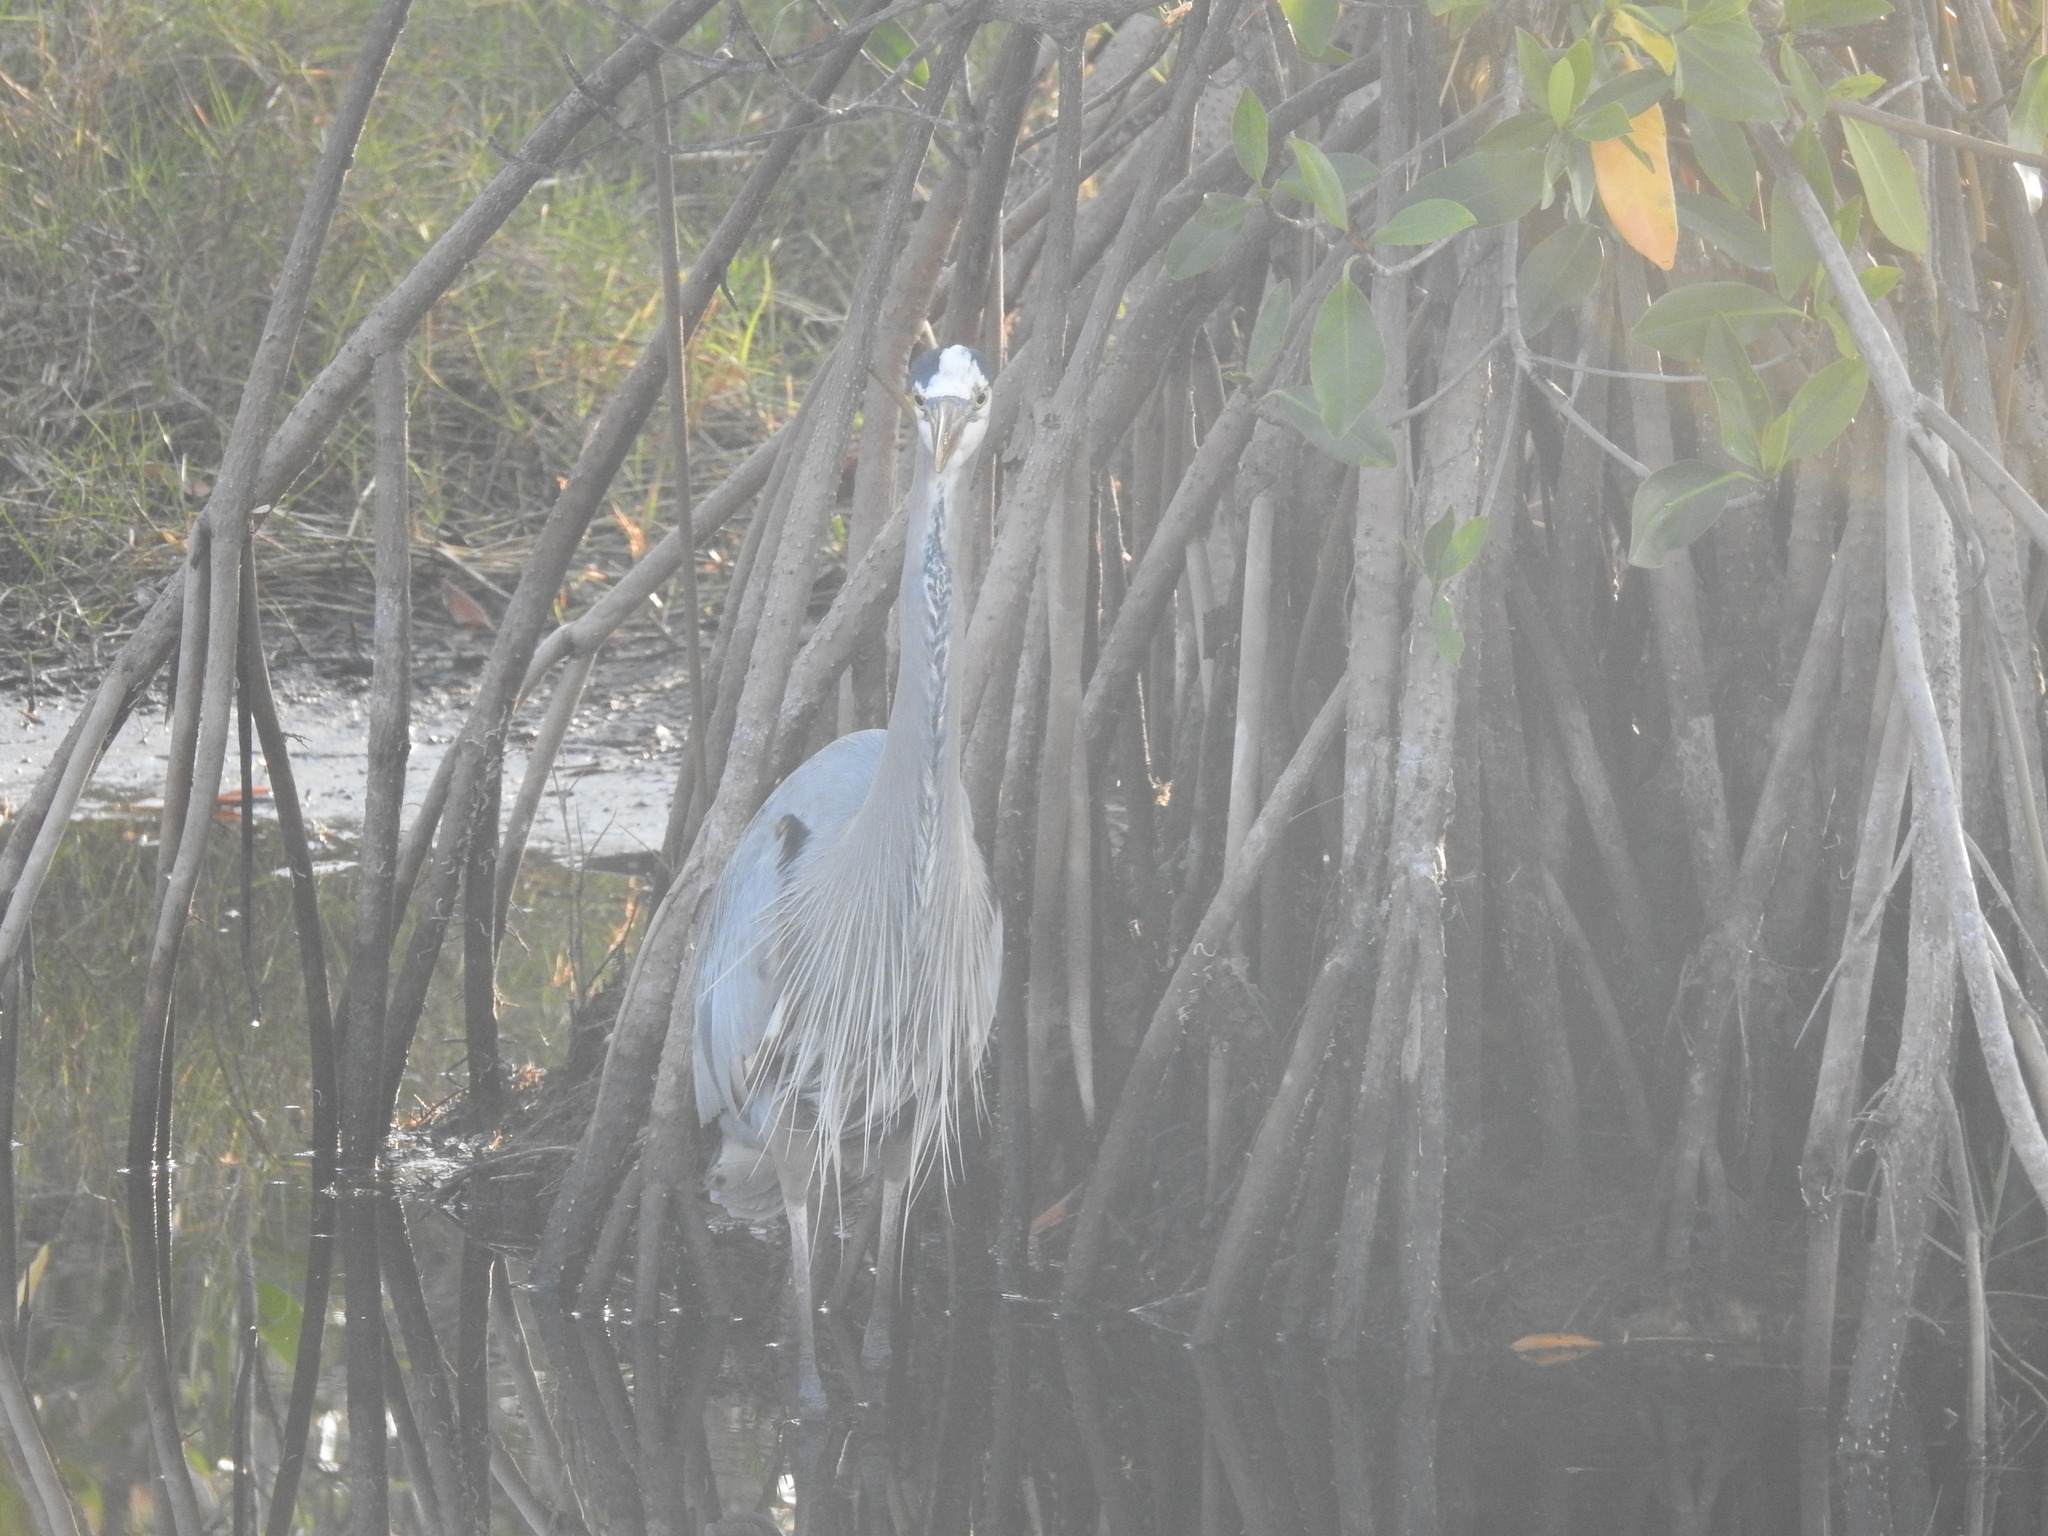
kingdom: Animalia
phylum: Chordata
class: Aves
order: Pelecaniformes
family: Ardeidae
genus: Ardea
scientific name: Ardea herodias
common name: Great blue heron
